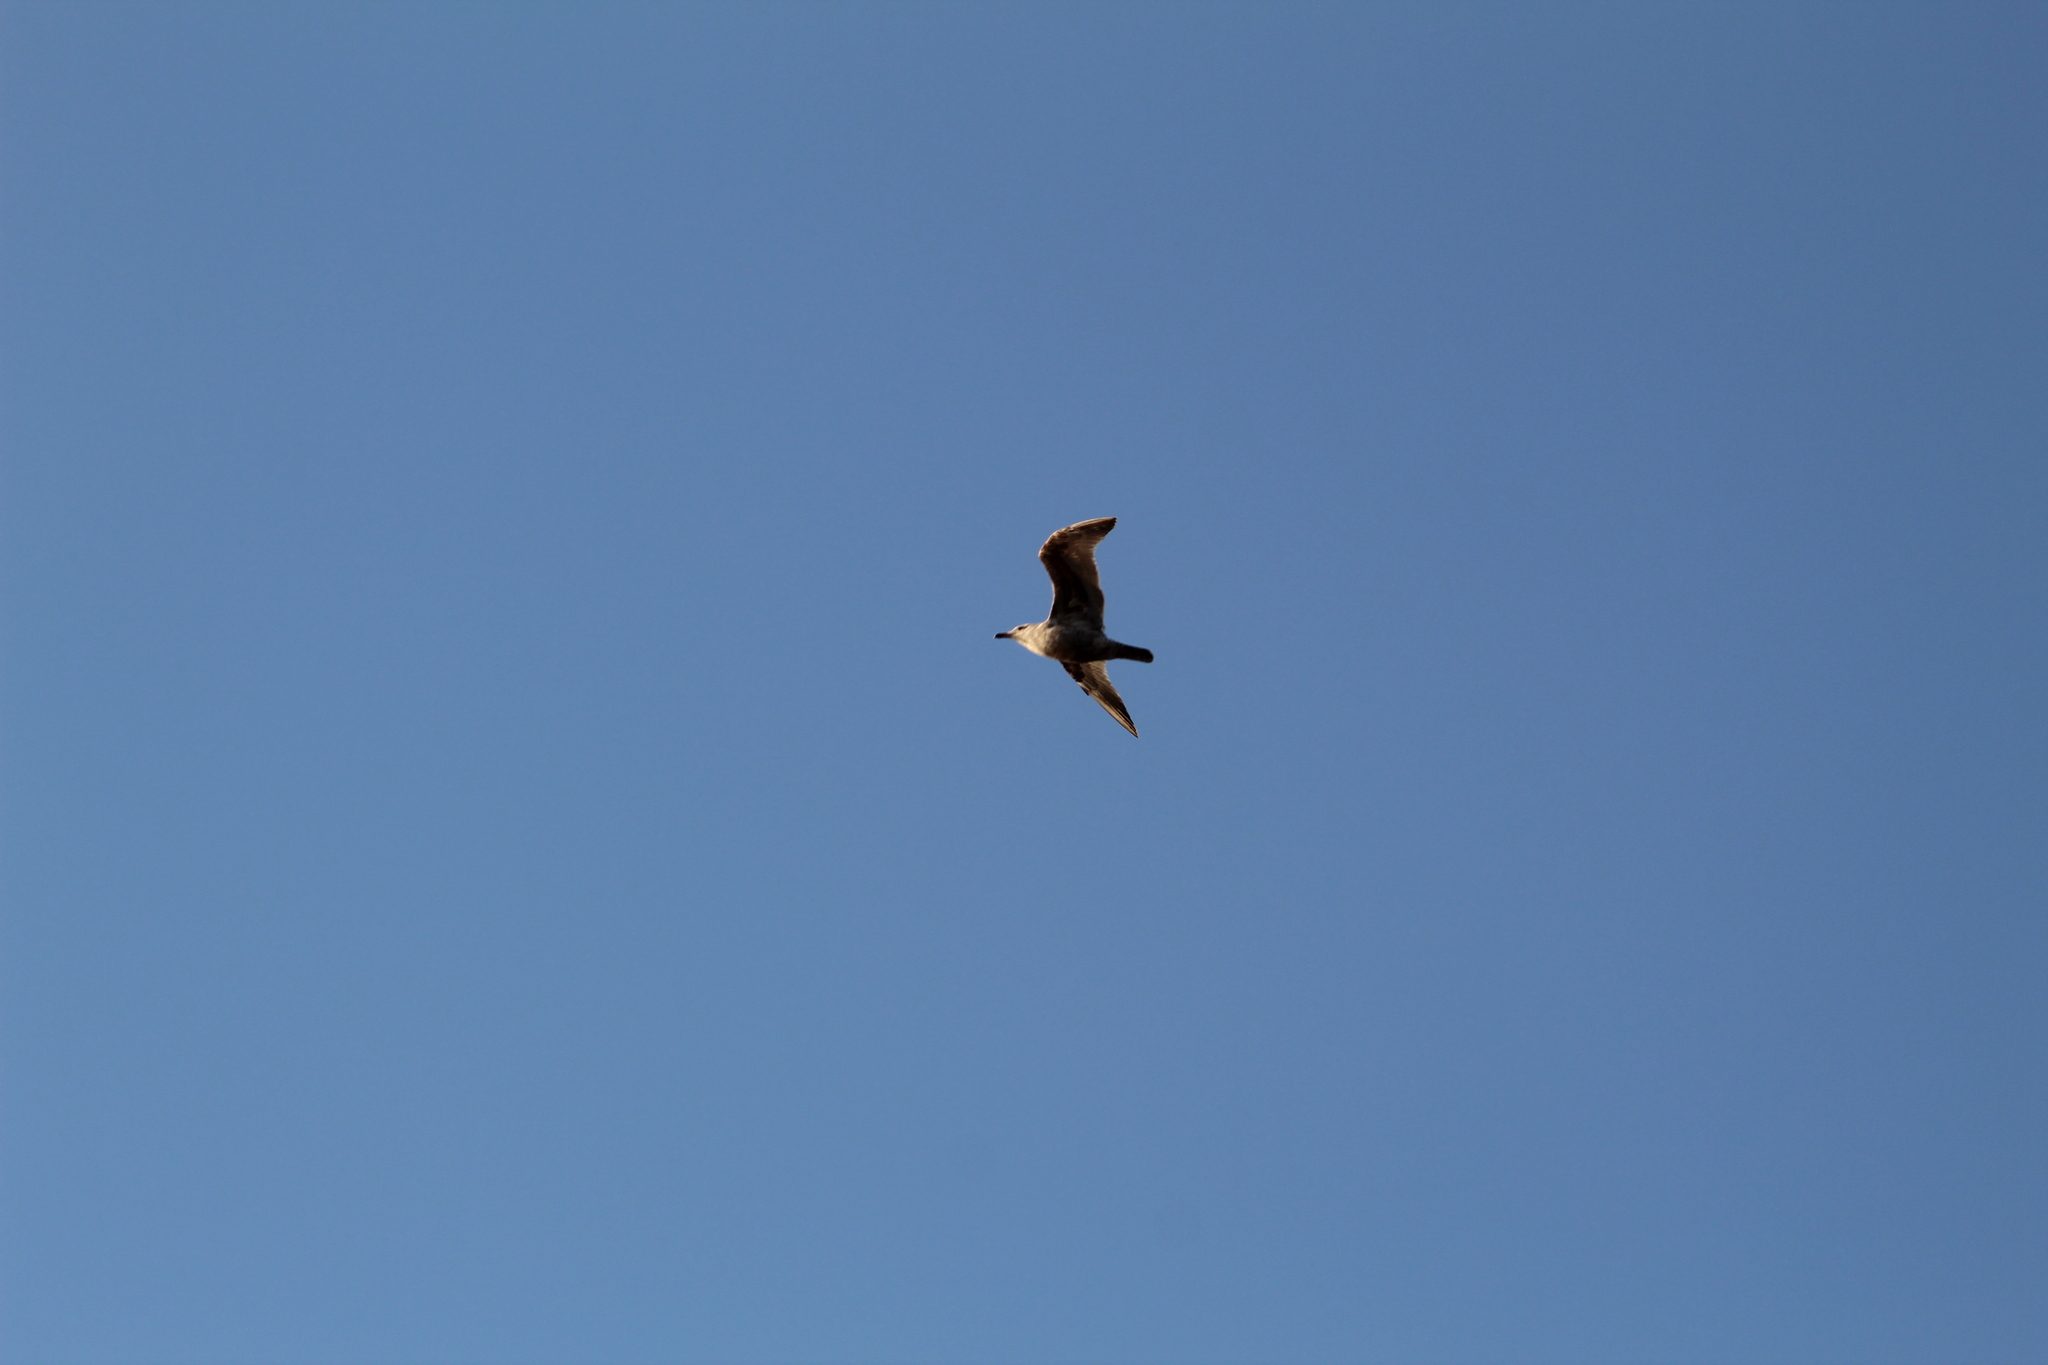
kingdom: Animalia
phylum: Chordata
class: Aves
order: Charadriiformes
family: Laridae
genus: Larus
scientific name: Larus argentatus
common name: Herring gull
